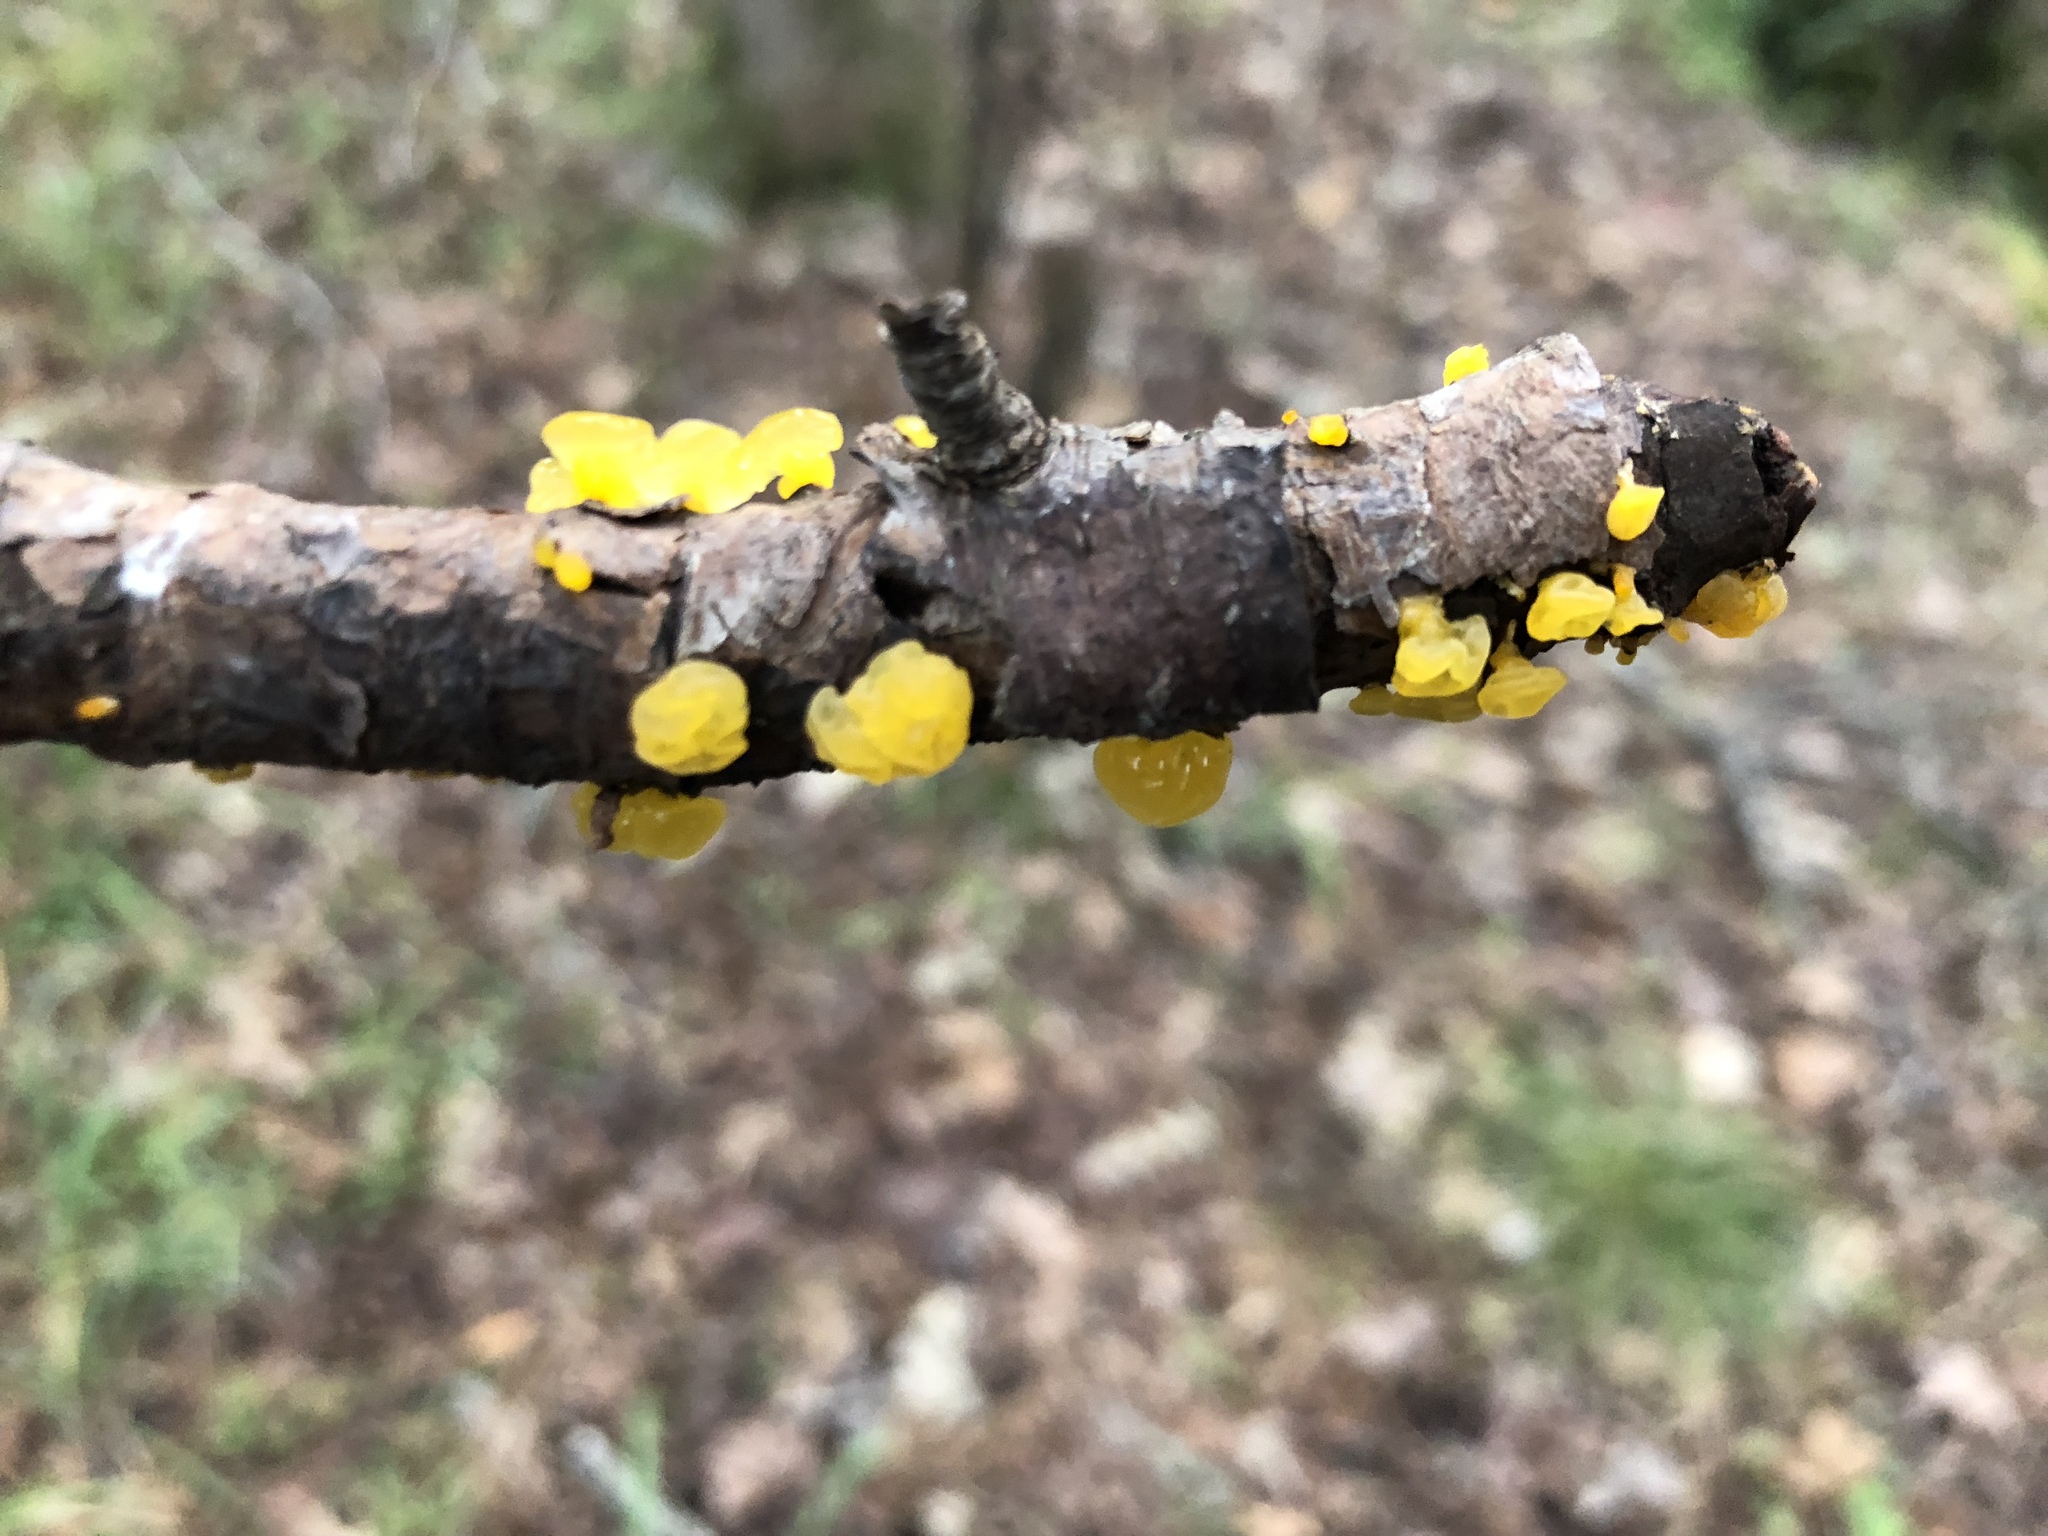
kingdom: Fungi
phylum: Basidiomycota
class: Tremellomycetes
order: Tremellales
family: Tremellaceae
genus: Tremella
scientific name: Tremella mesenterica
